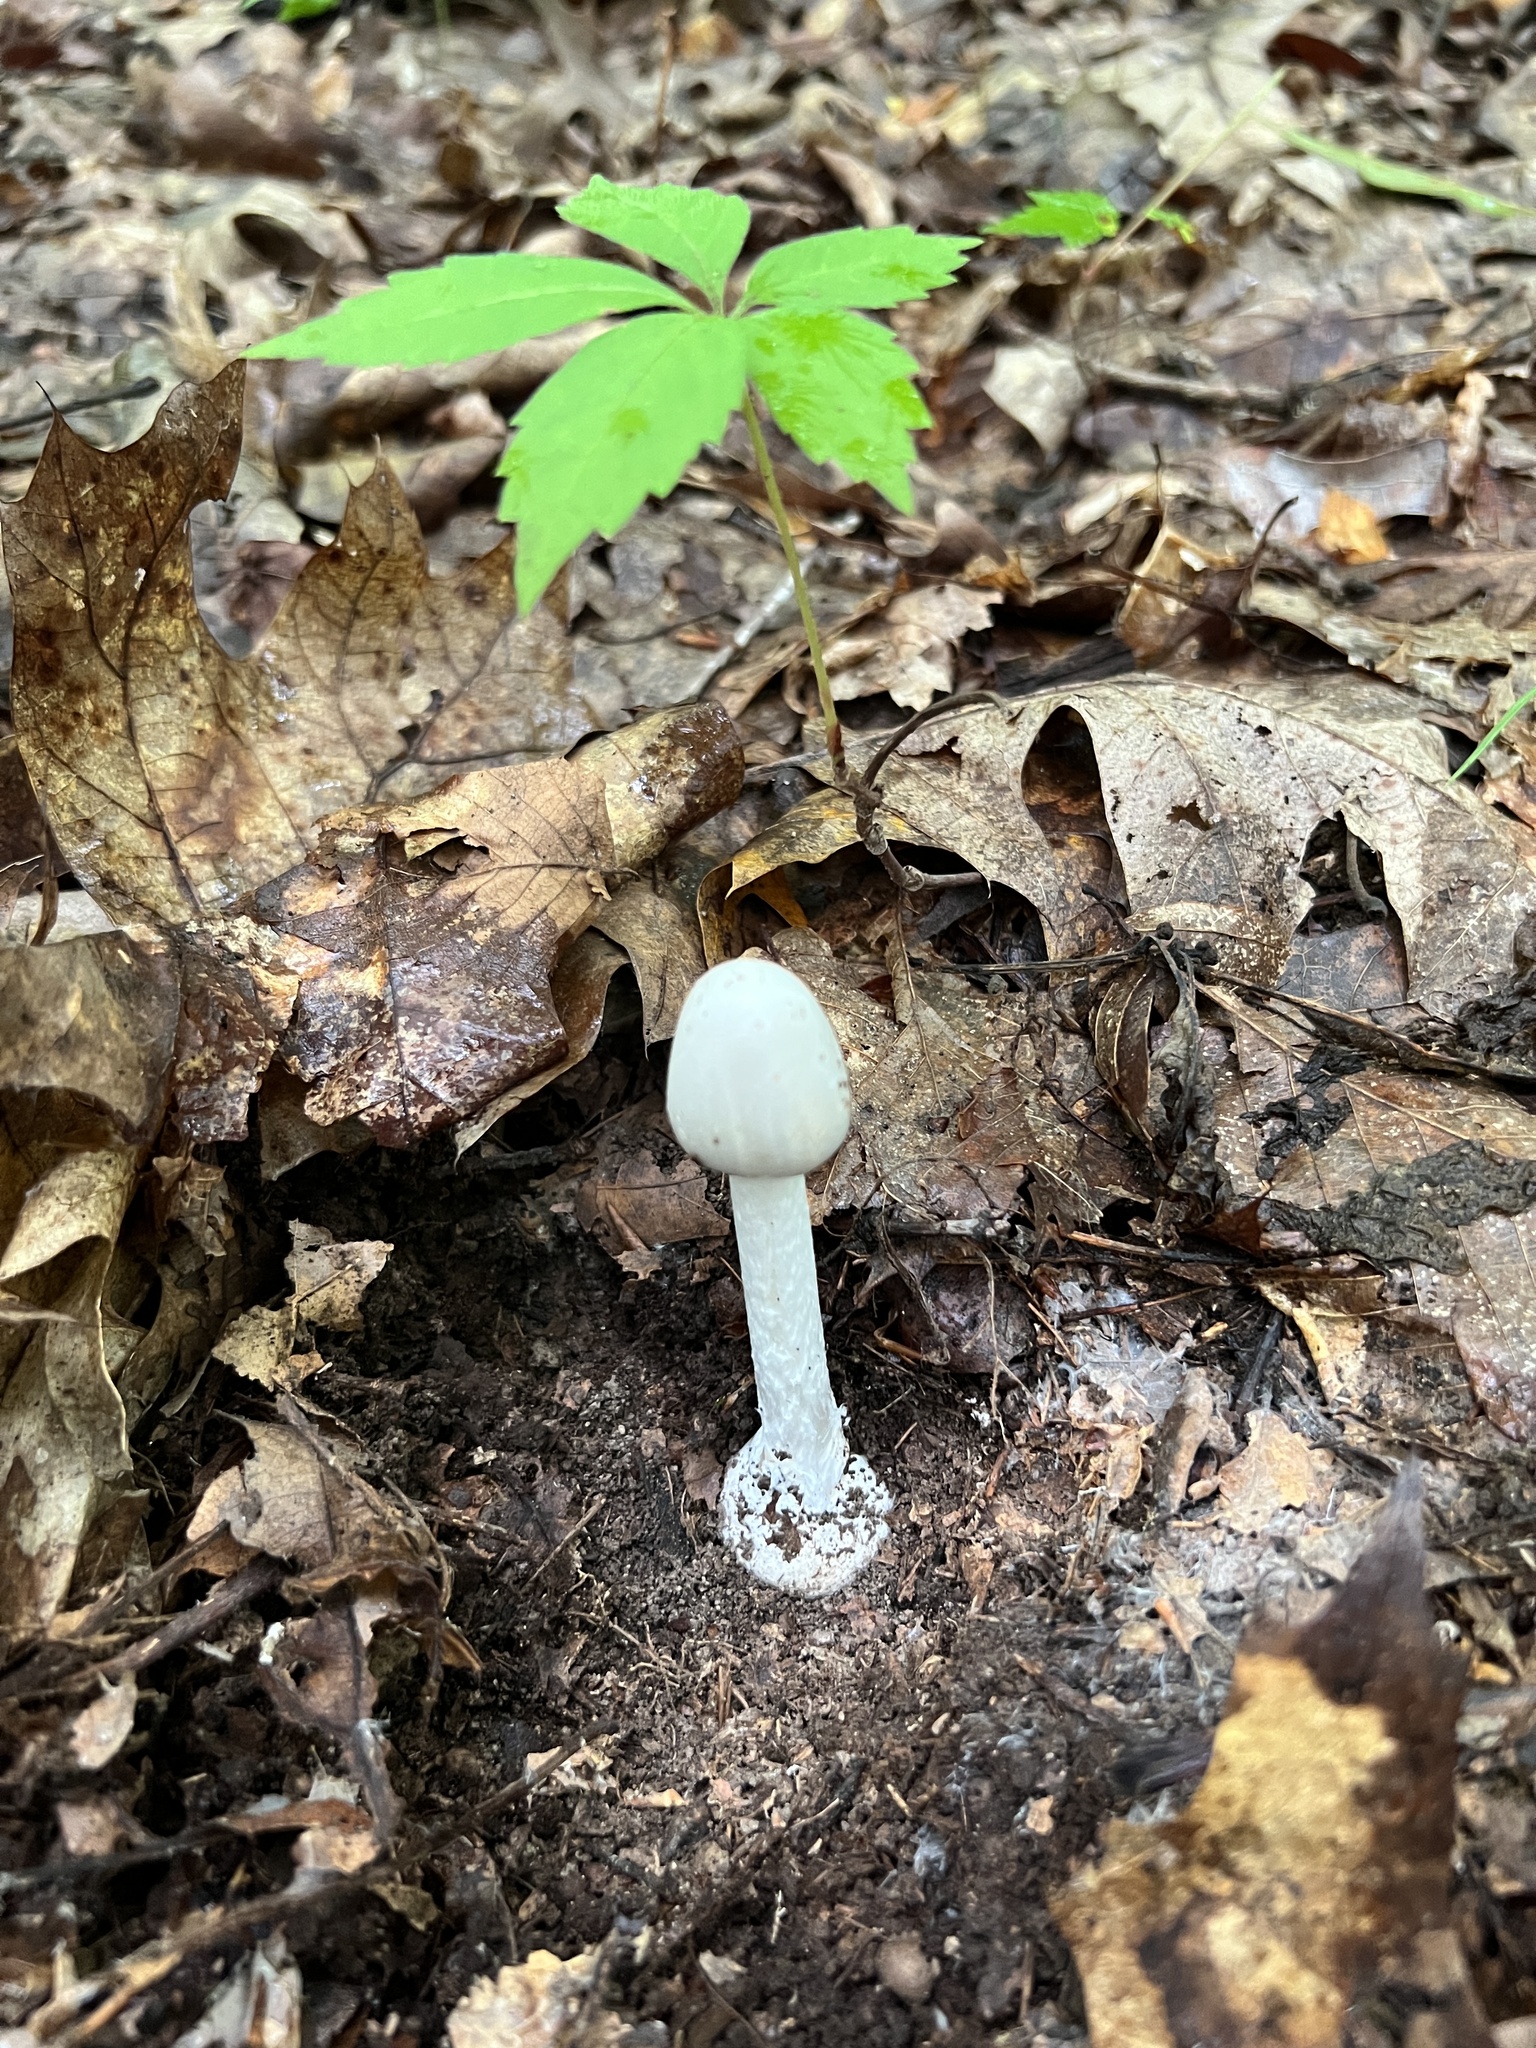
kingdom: Fungi
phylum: Basidiomycota
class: Agaricomycetes
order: Agaricales
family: Amanitaceae
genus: Amanita
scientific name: Amanita bisporigera
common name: Eastern north american destroying angel
